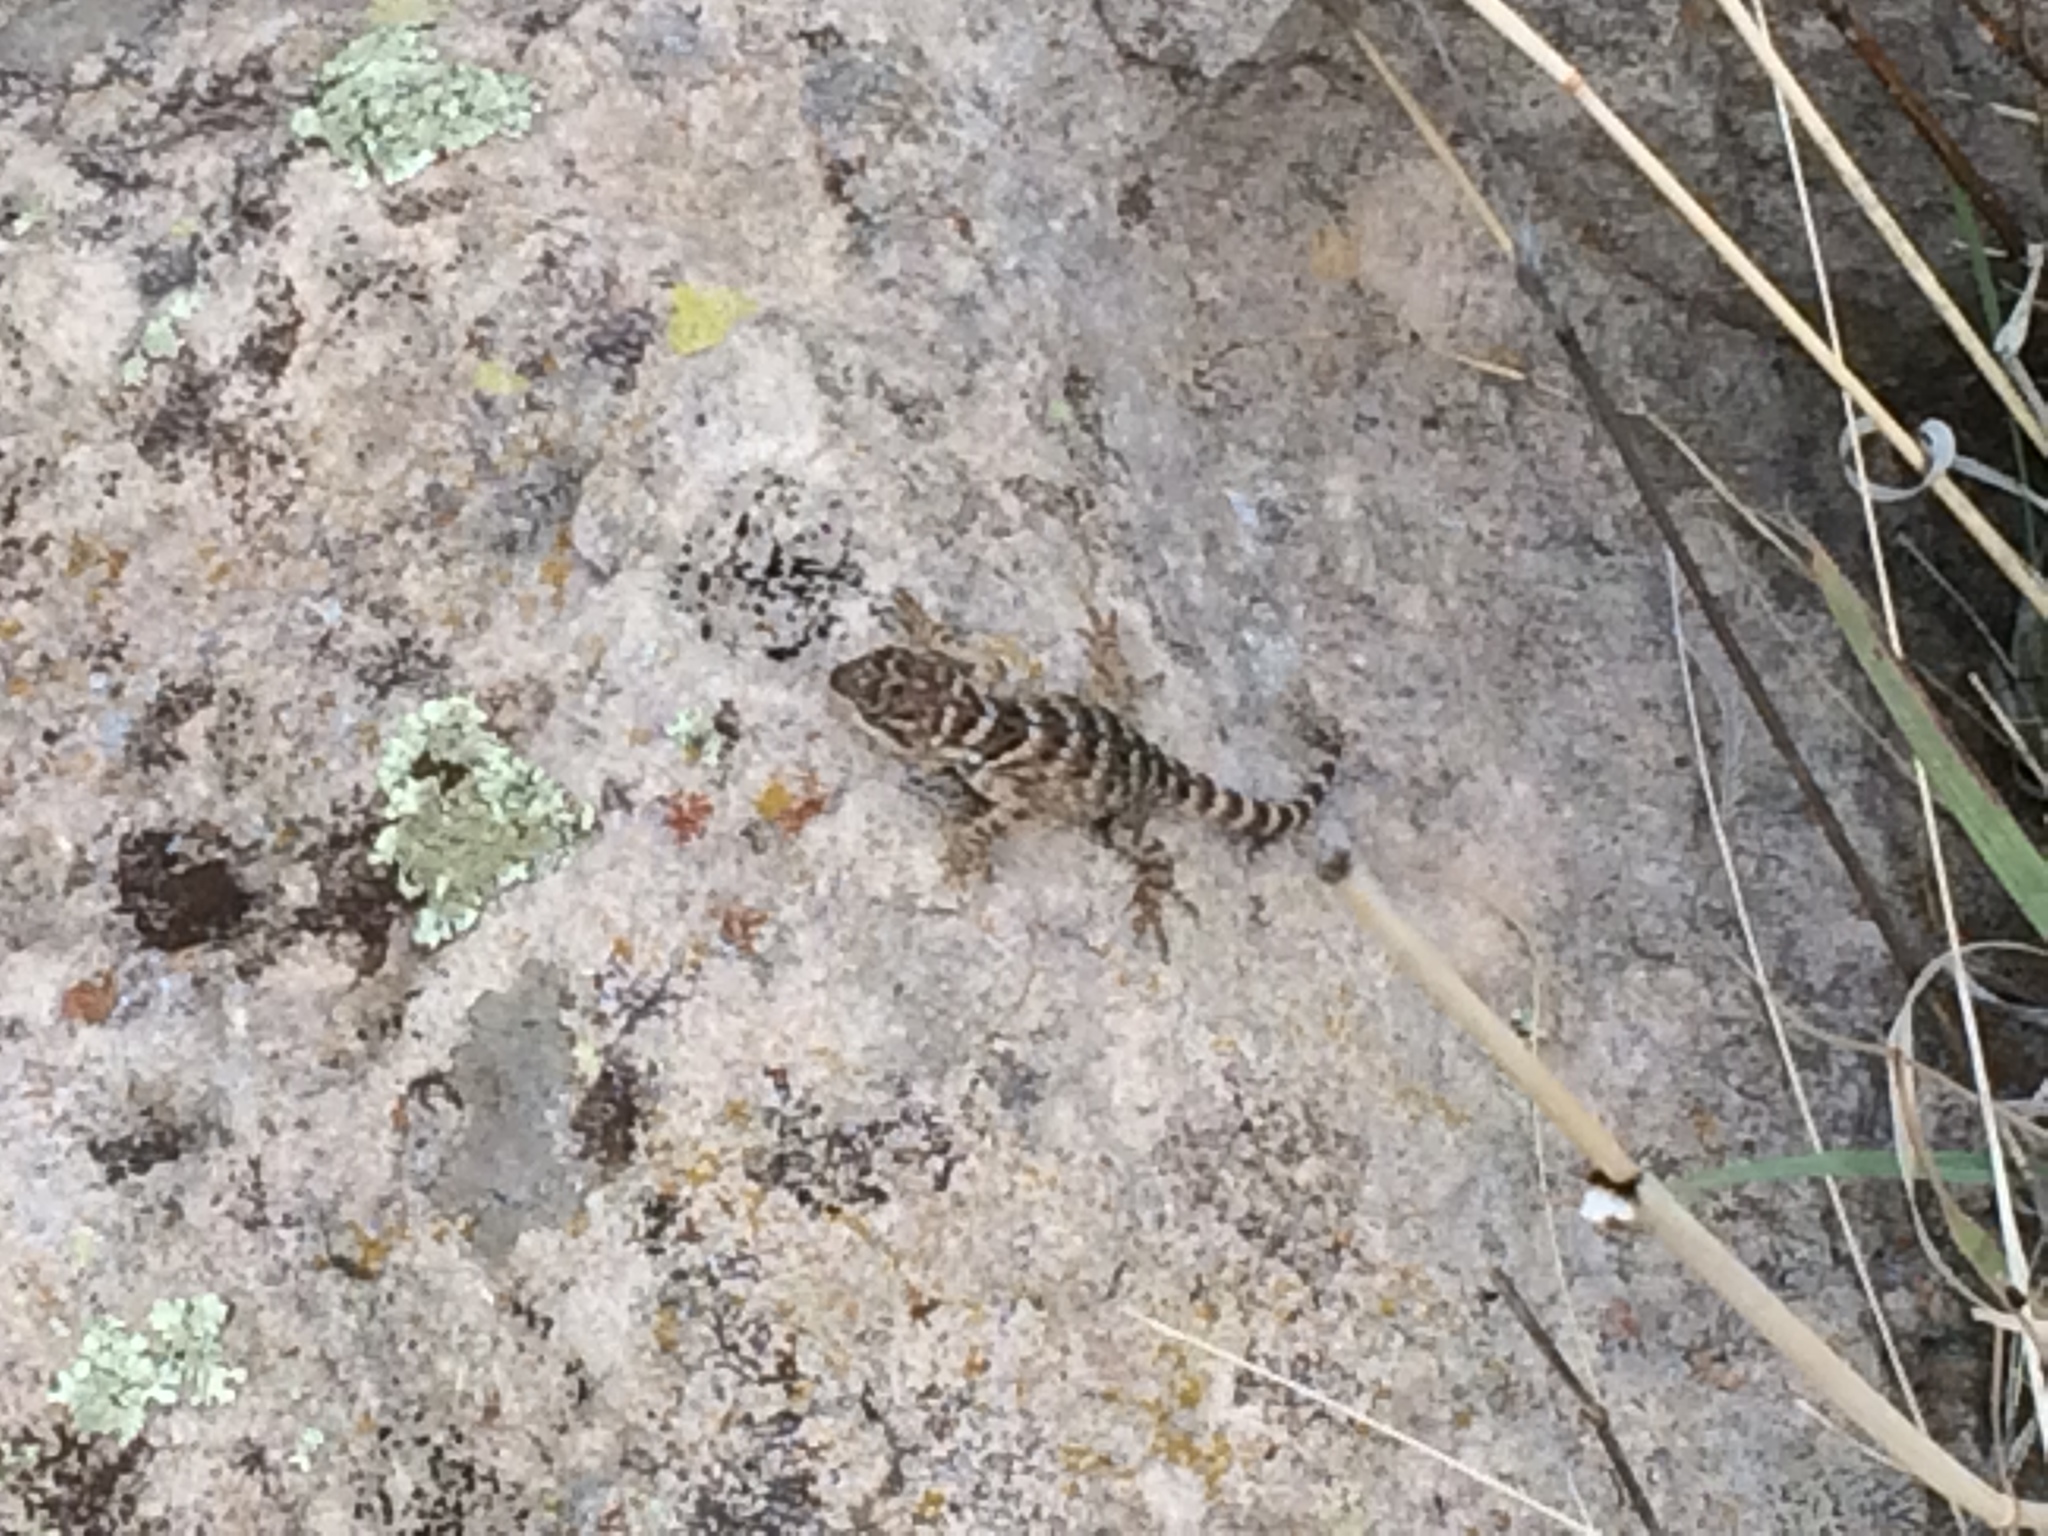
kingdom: Animalia
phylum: Chordata
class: Squamata
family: Phrynosomatidae
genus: Sceloporus
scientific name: Sceloporus poinsettii
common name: Crevice spiny lizard
